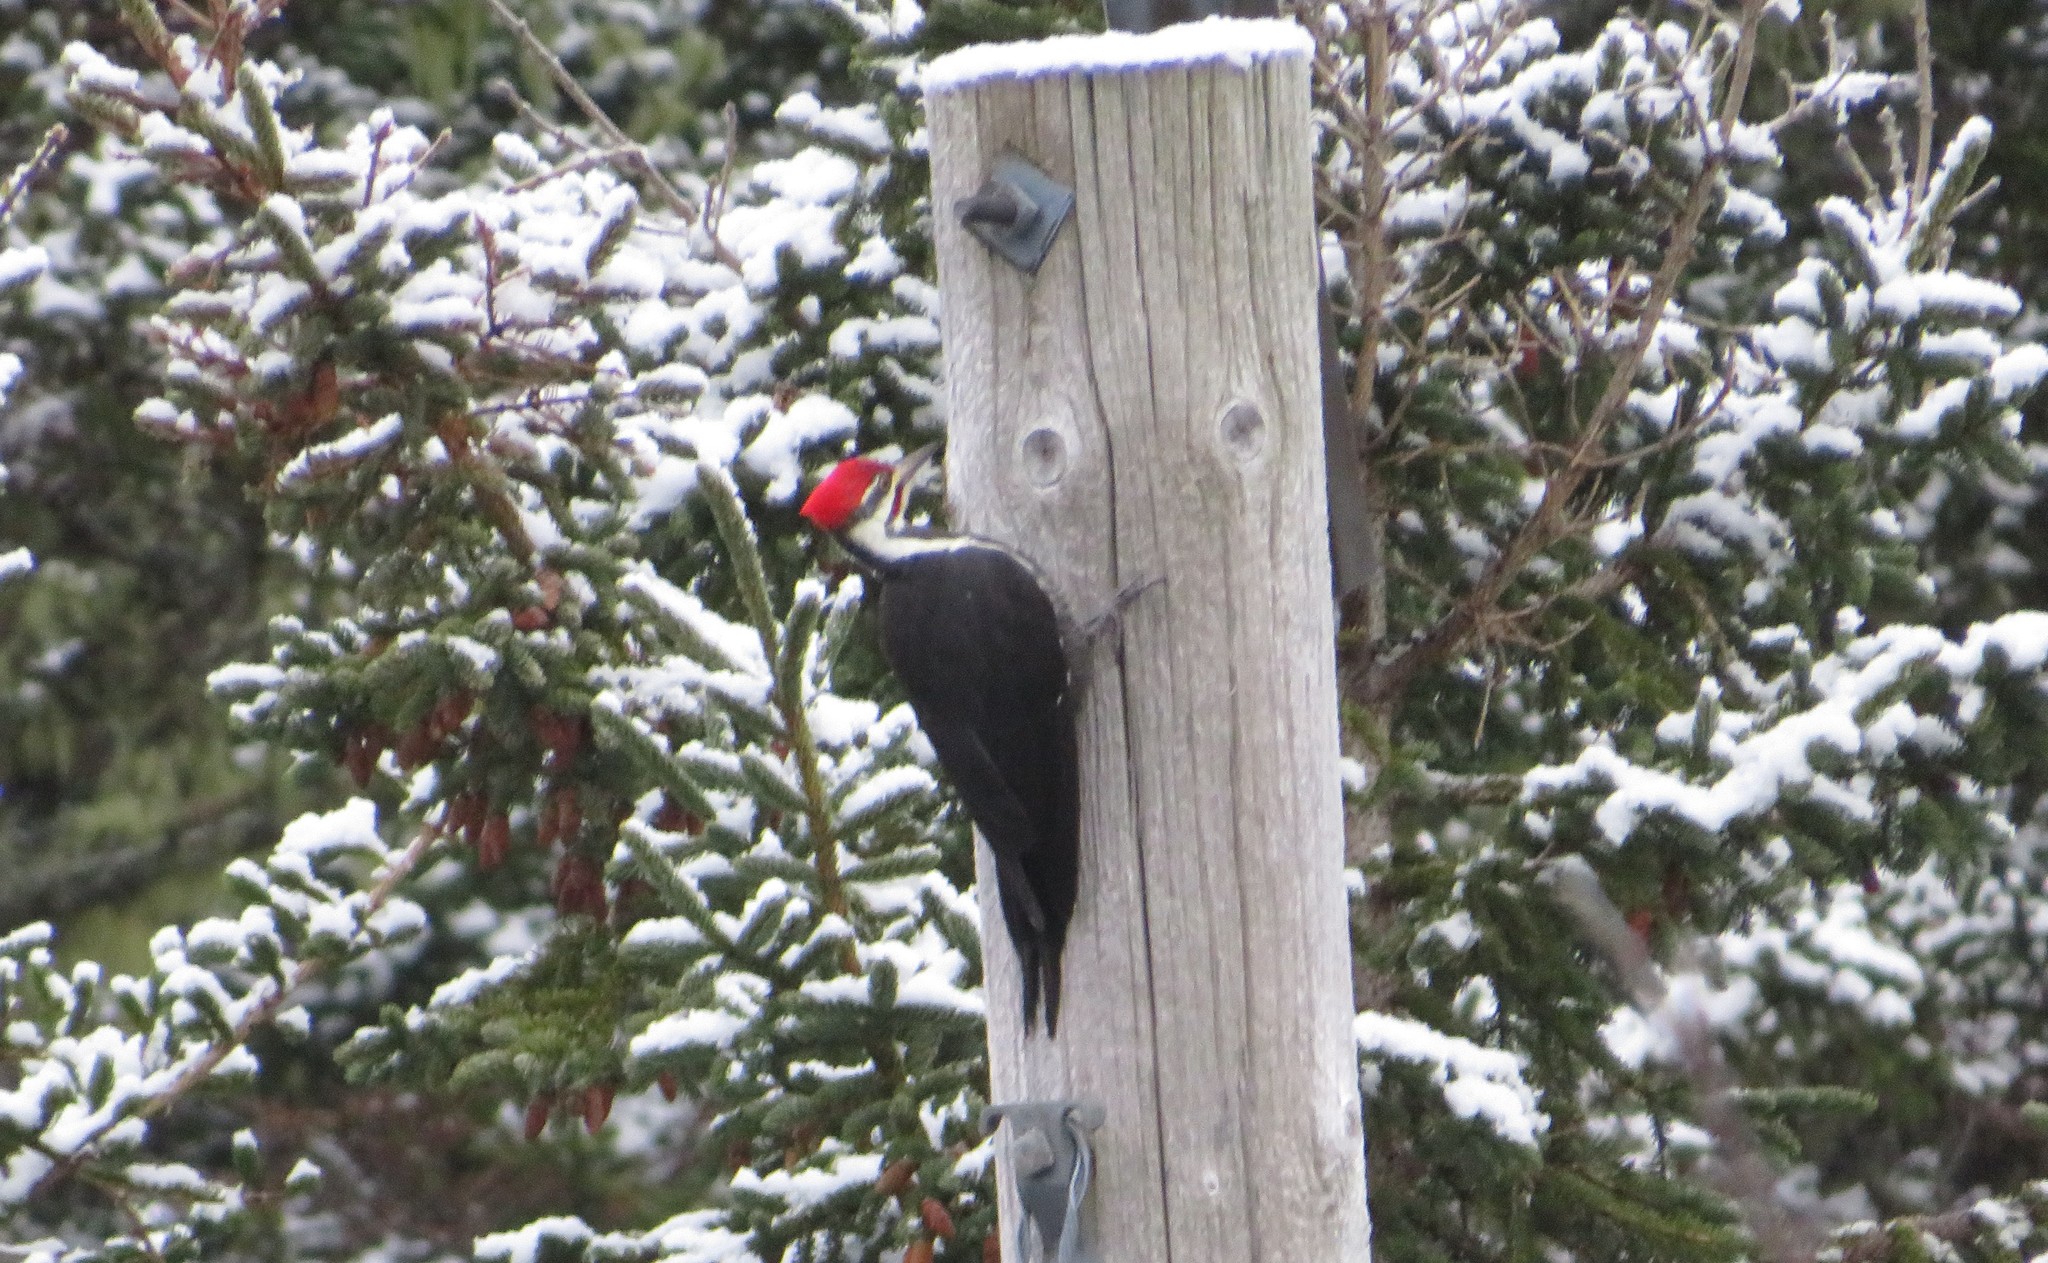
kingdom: Animalia
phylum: Chordata
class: Aves
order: Piciformes
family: Picidae
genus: Dryocopus
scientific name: Dryocopus pileatus
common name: Pileated woodpecker
